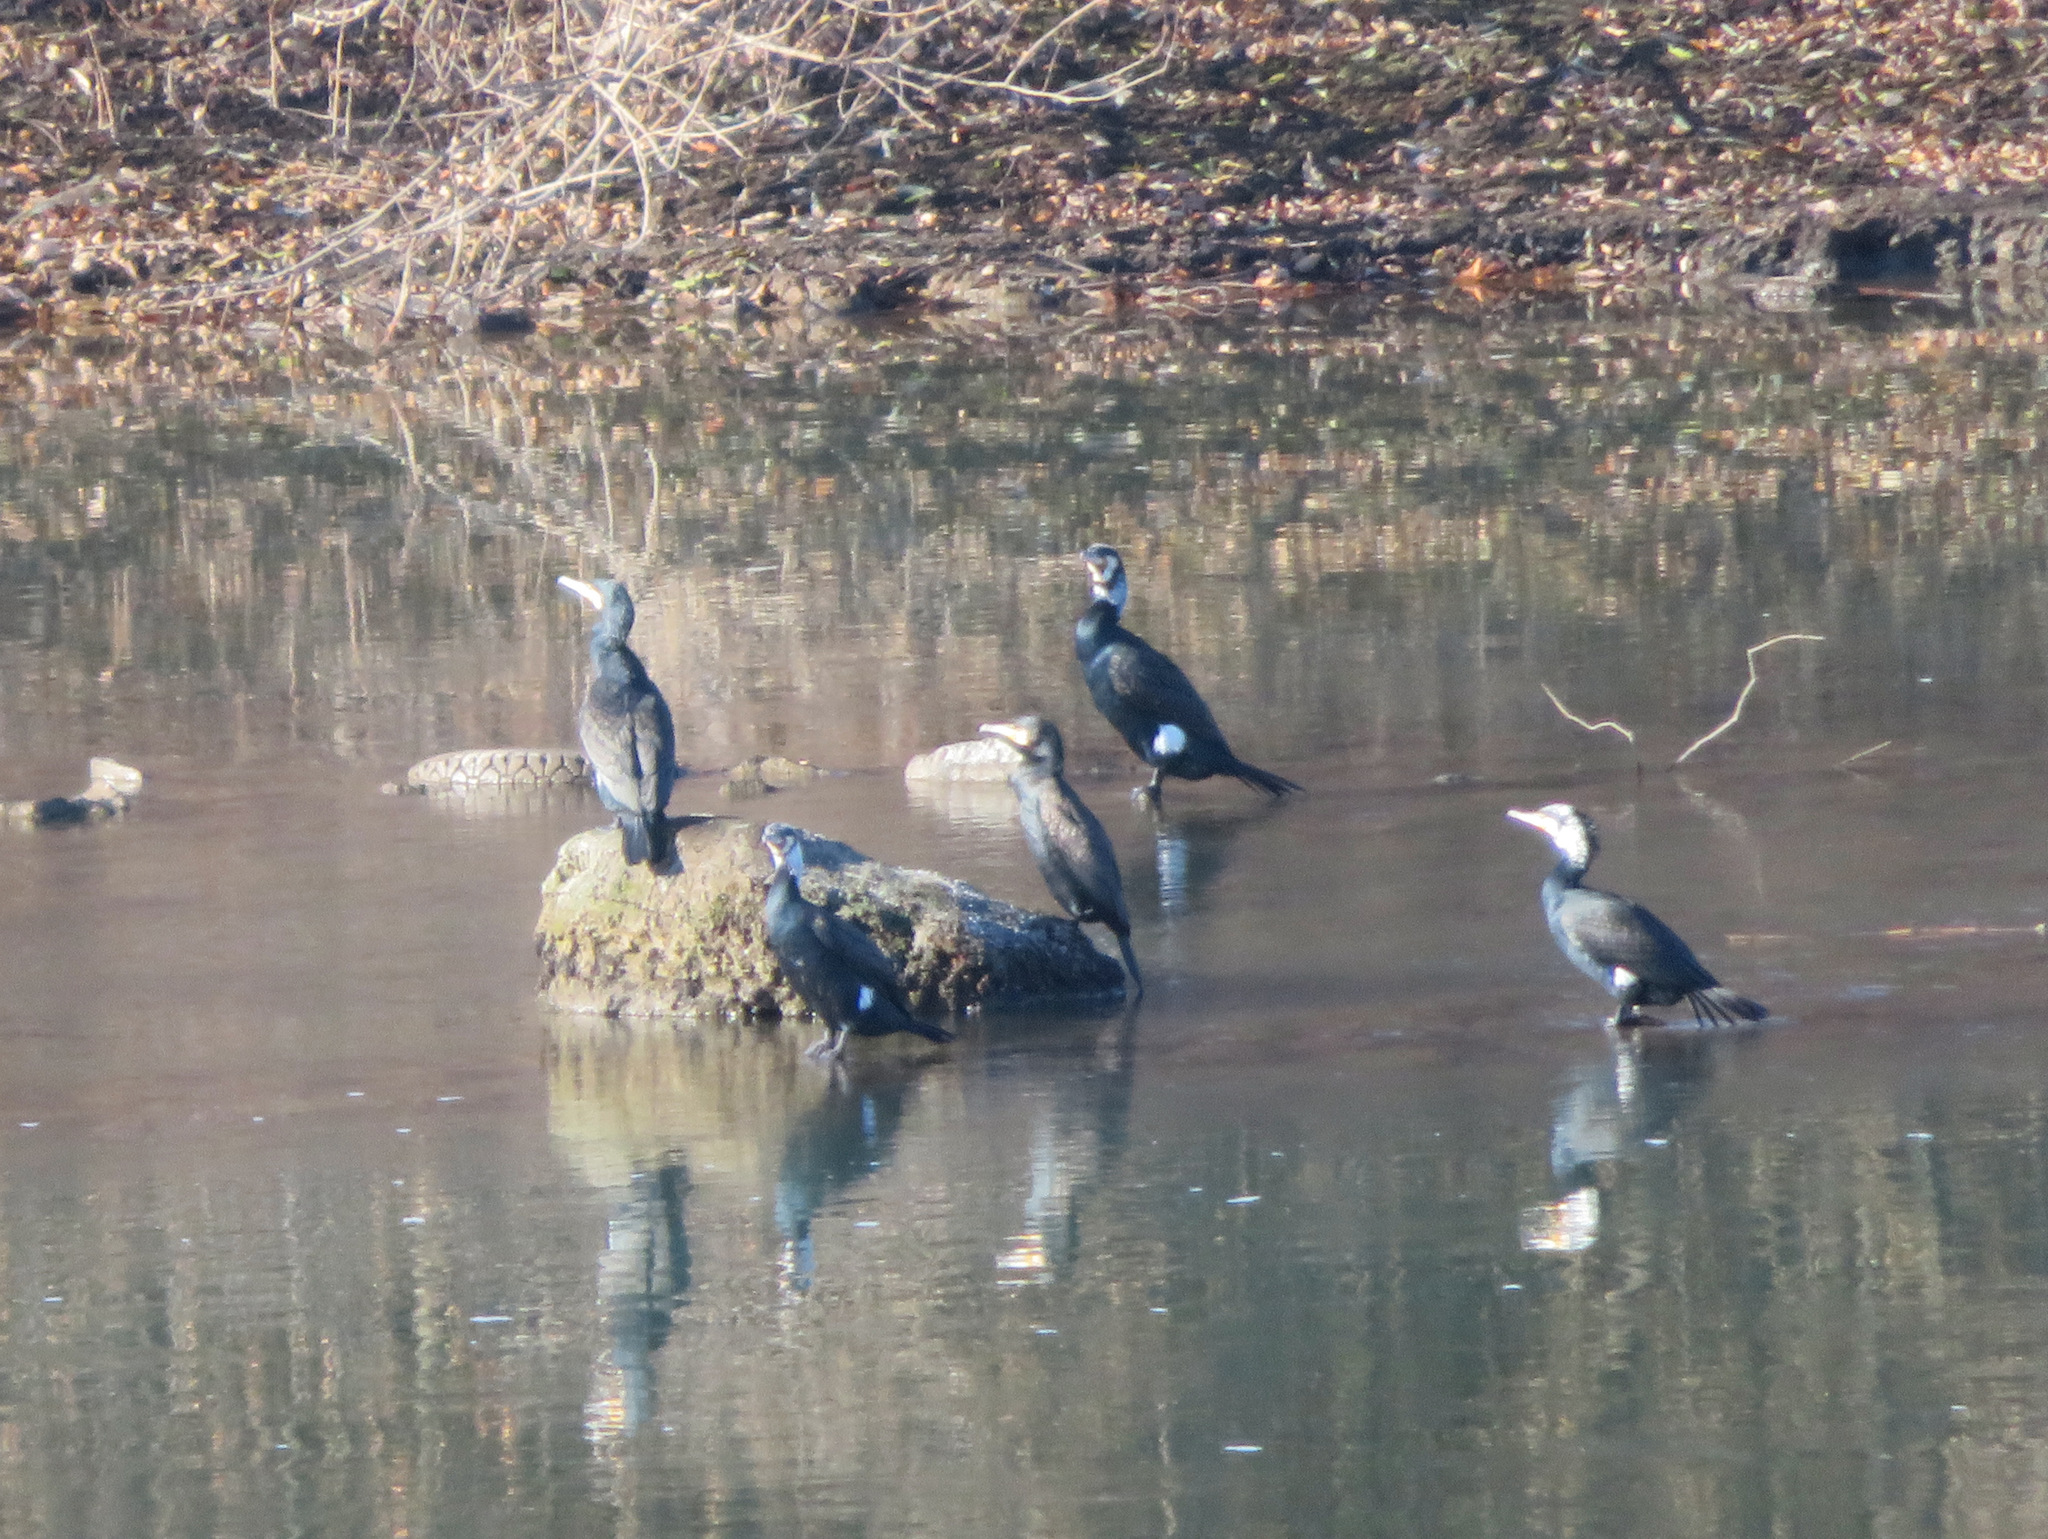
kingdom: Animalia
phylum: Chordata
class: Aves
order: Suliformes
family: Phalacrocoracidae
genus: Phalacrocorax
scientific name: Phalacrocorax carbo
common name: Great cormorant
